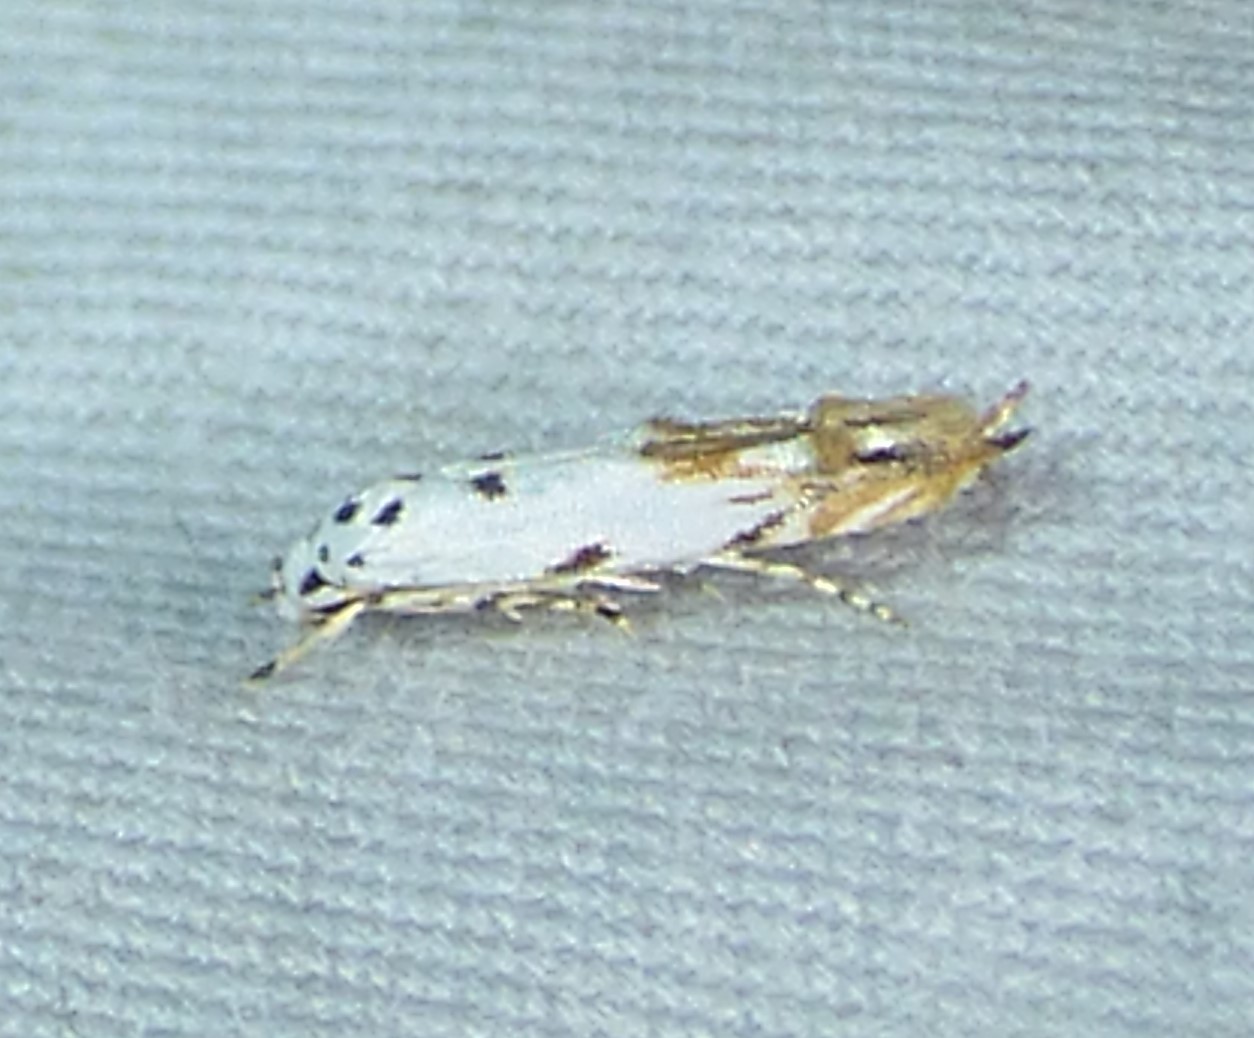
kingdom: Animalia
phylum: Arthropoda
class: Insecta
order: Lepidoptera
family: Momphidae
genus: Mompha
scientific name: Mompha eloisella
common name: Red-streaked mompha moth
